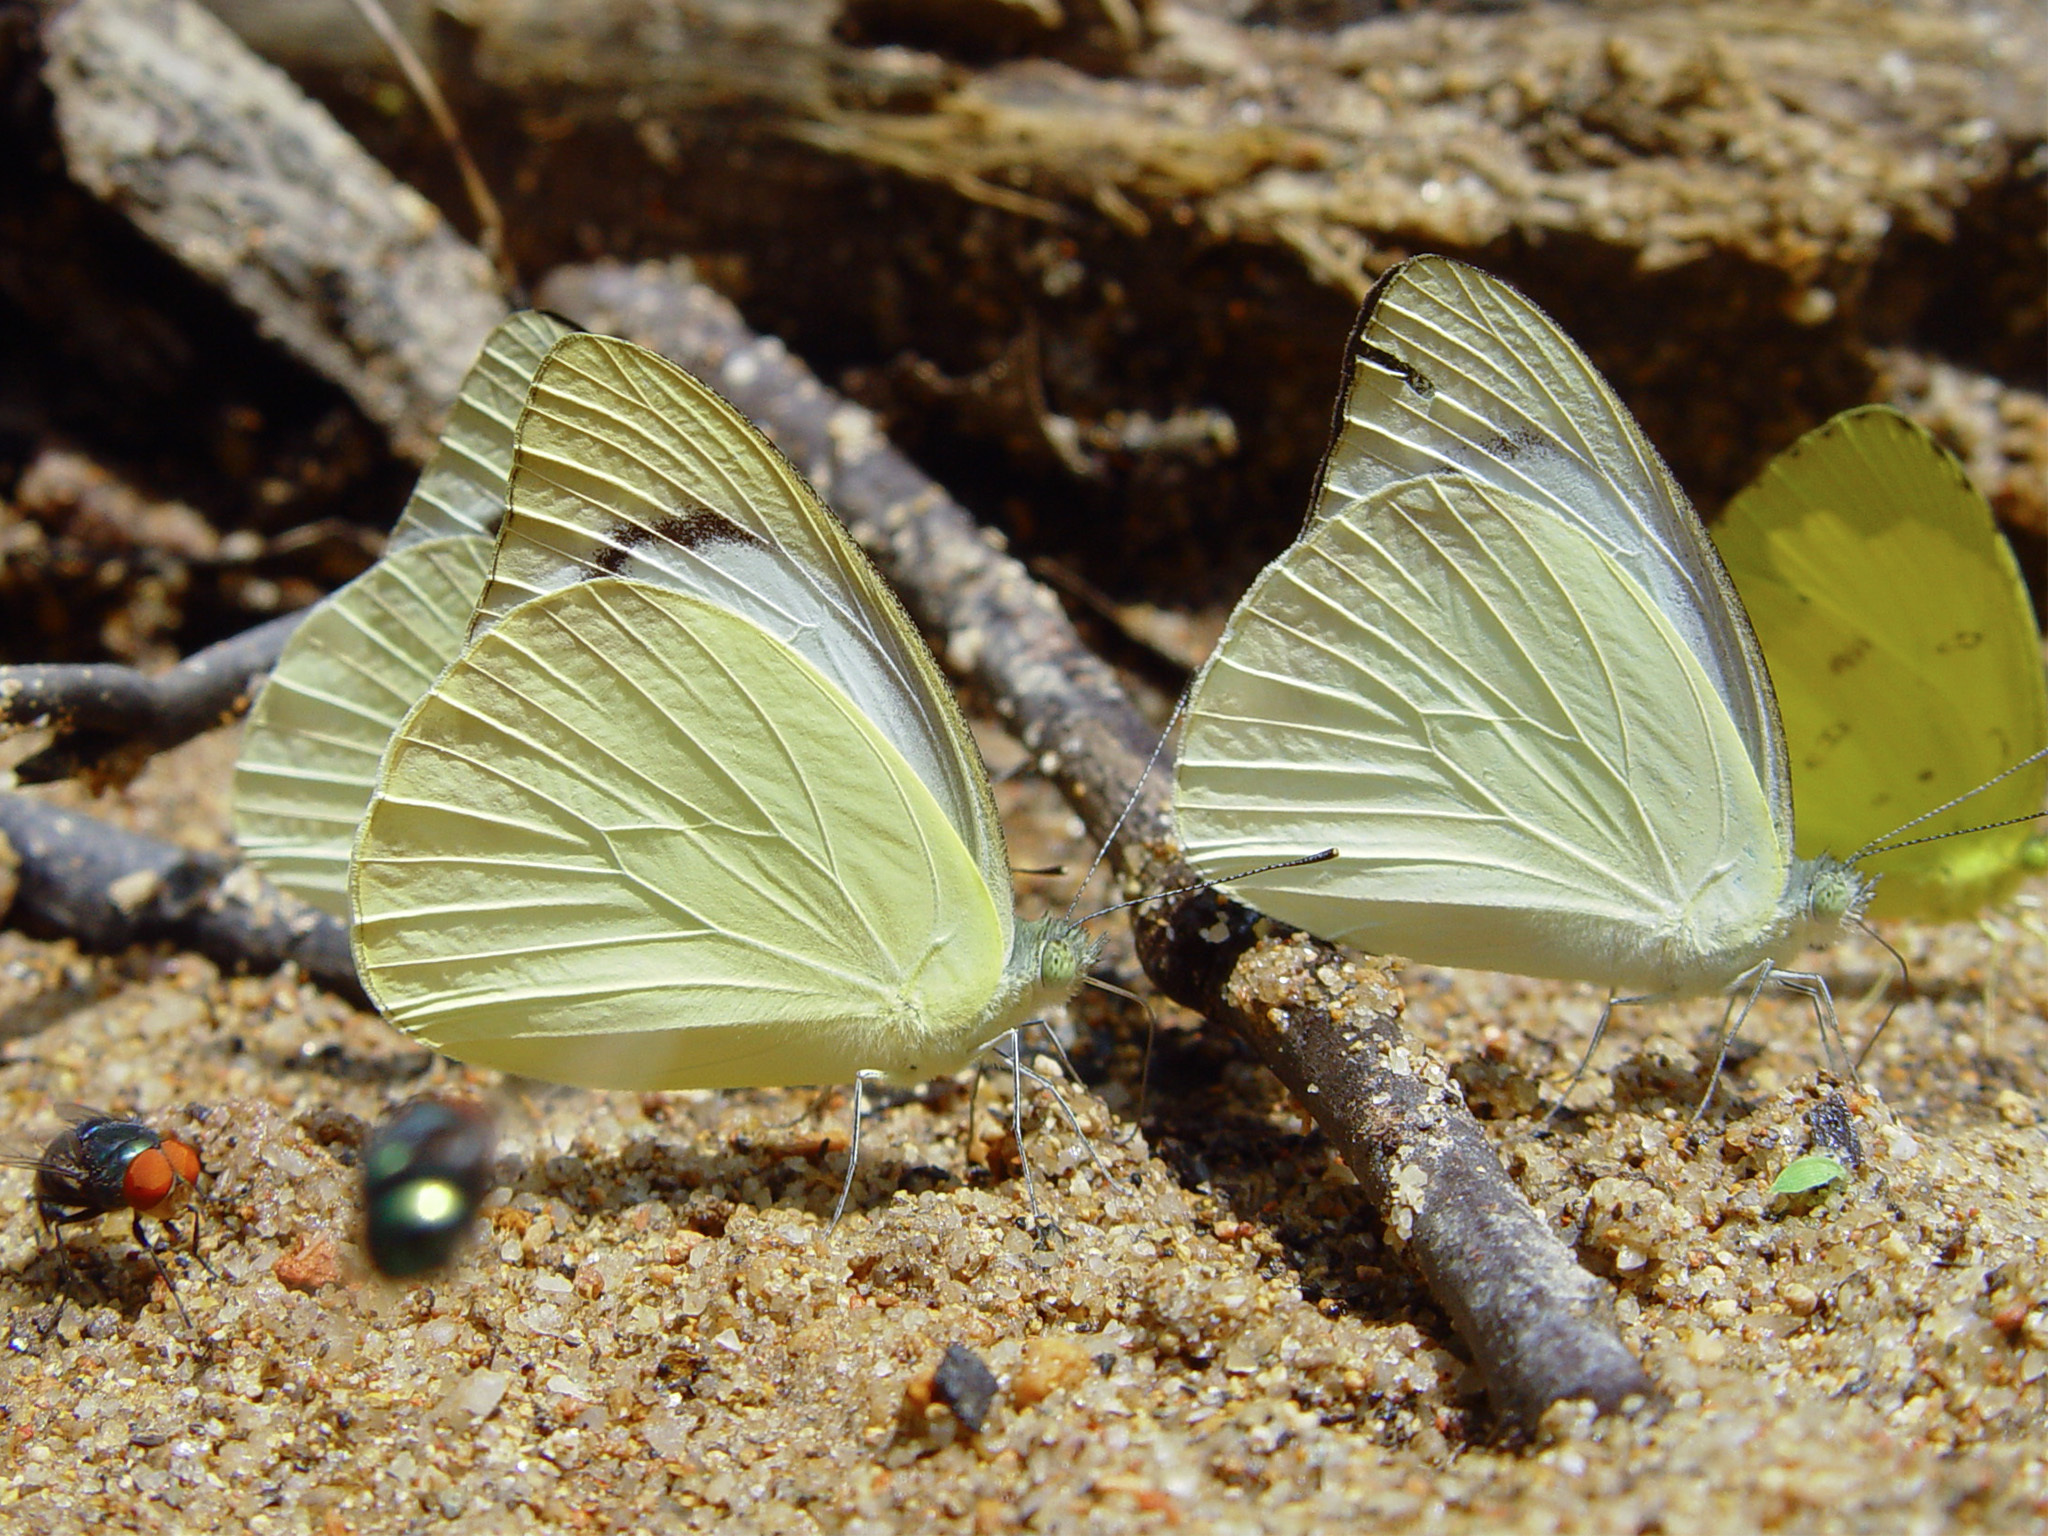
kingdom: Animalia
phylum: Arthropoda
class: Insecta
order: Lepidoptera
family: Pieridae
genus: Appias
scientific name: Appias paulina
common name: Ceylon lesser albatross
